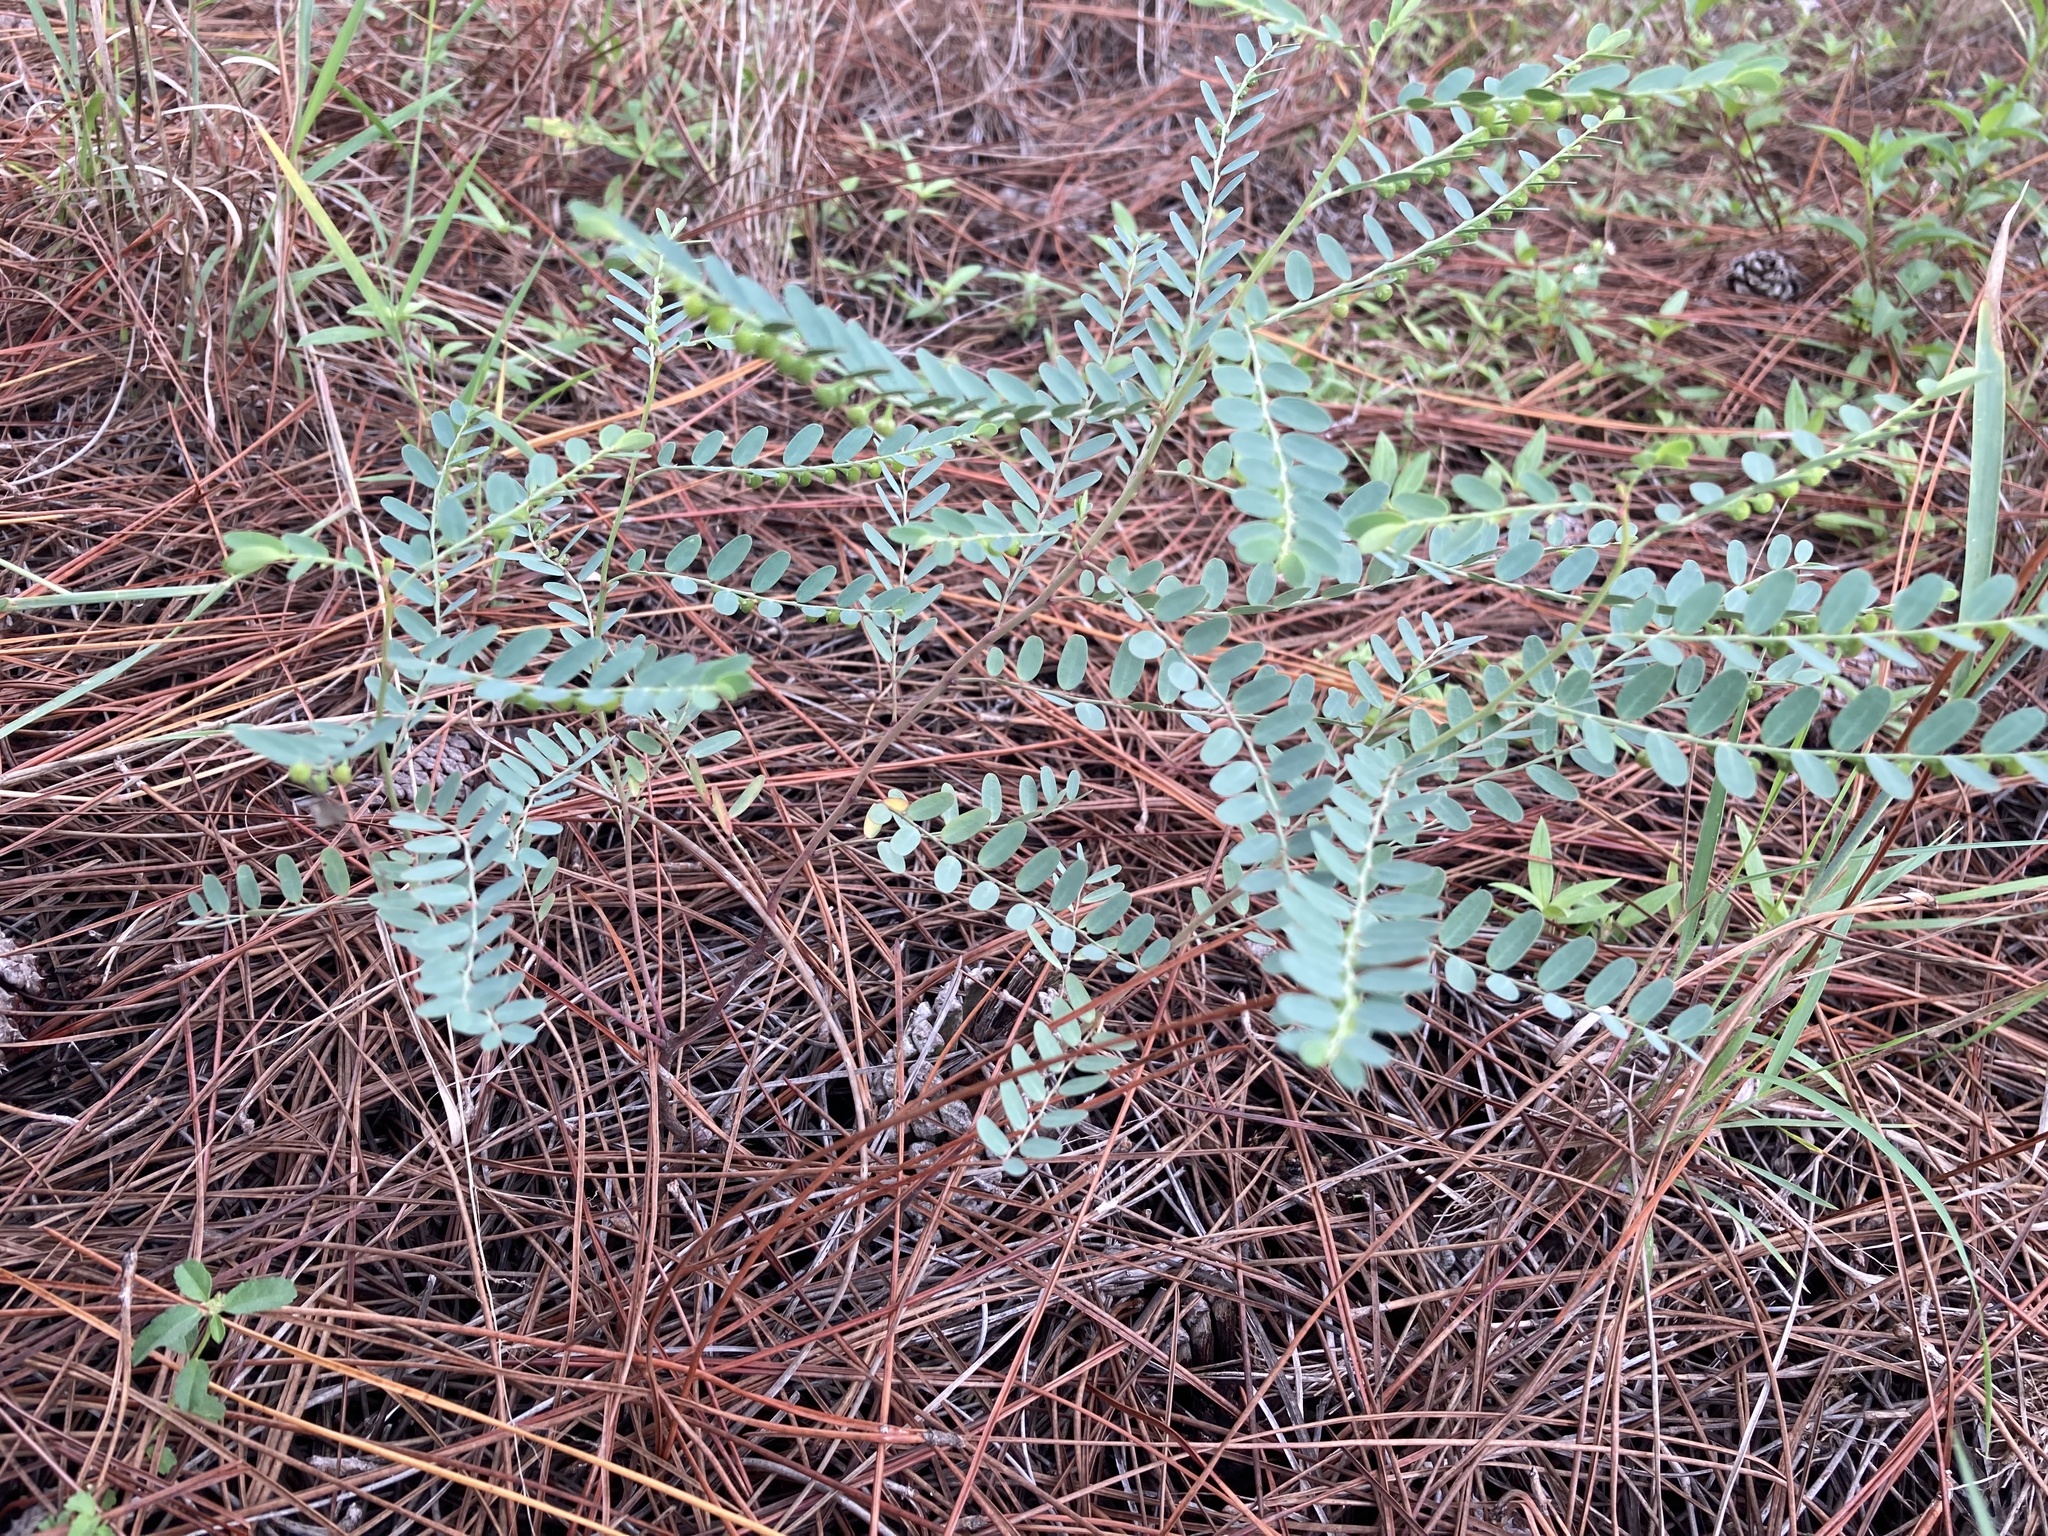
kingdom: Plantae
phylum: Tracheophyta
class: Magnoliopsida
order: Malpighiales
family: Phyllanthaceae
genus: Phyllanthus
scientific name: Phyllanthus abnormis
